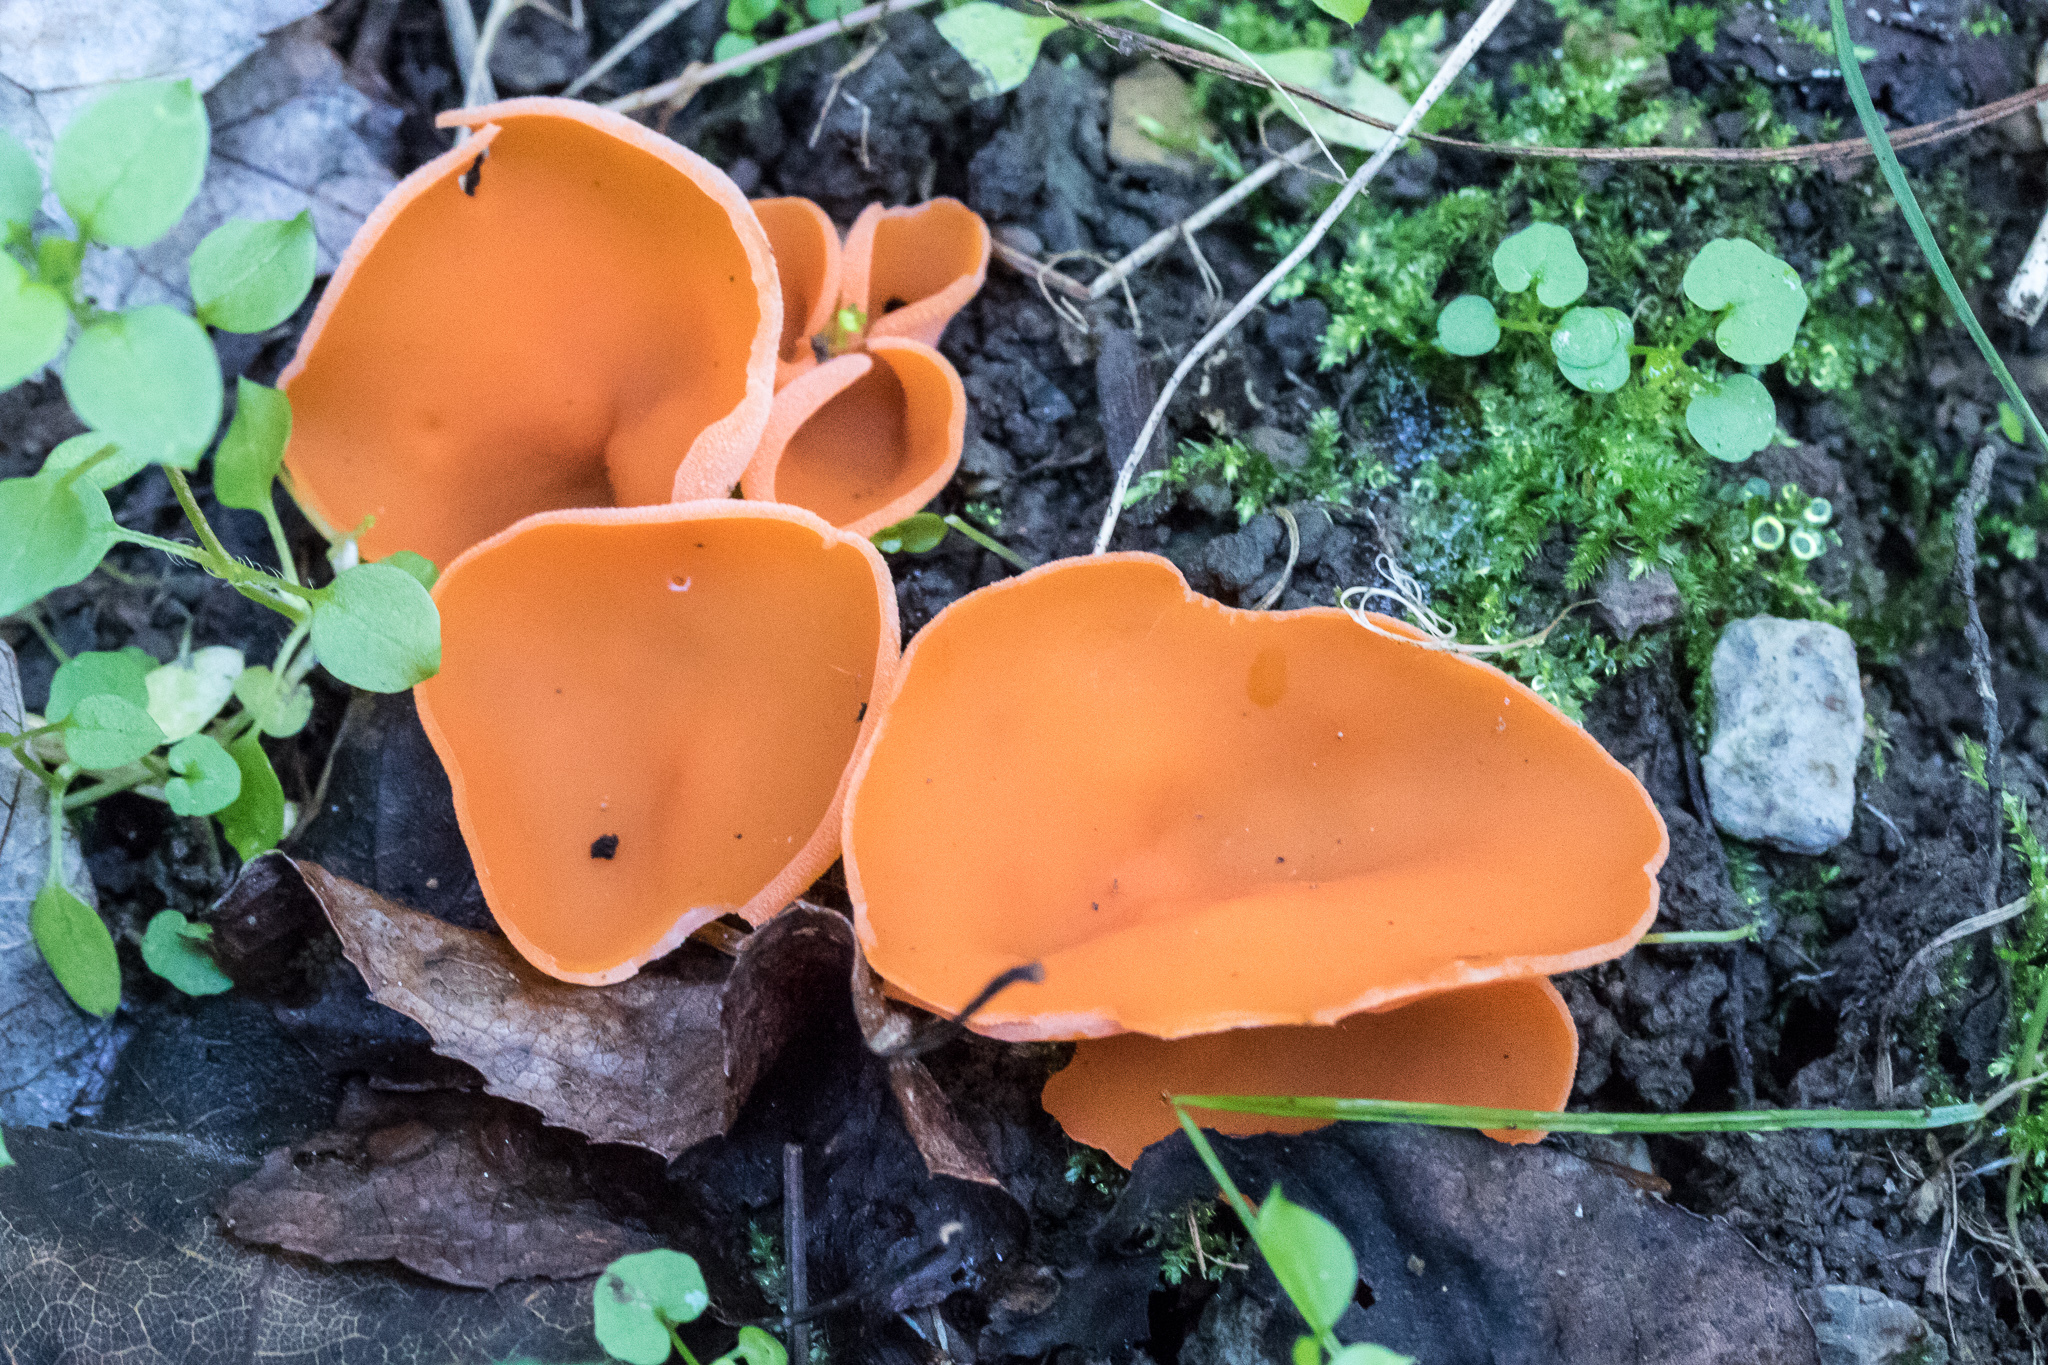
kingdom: Fungi
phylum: Ascomycota
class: Pezizomycetes
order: Pezizales
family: Pyronemataceae
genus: Aleuria
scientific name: Aleuria aurantia
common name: Orange peel fungus
